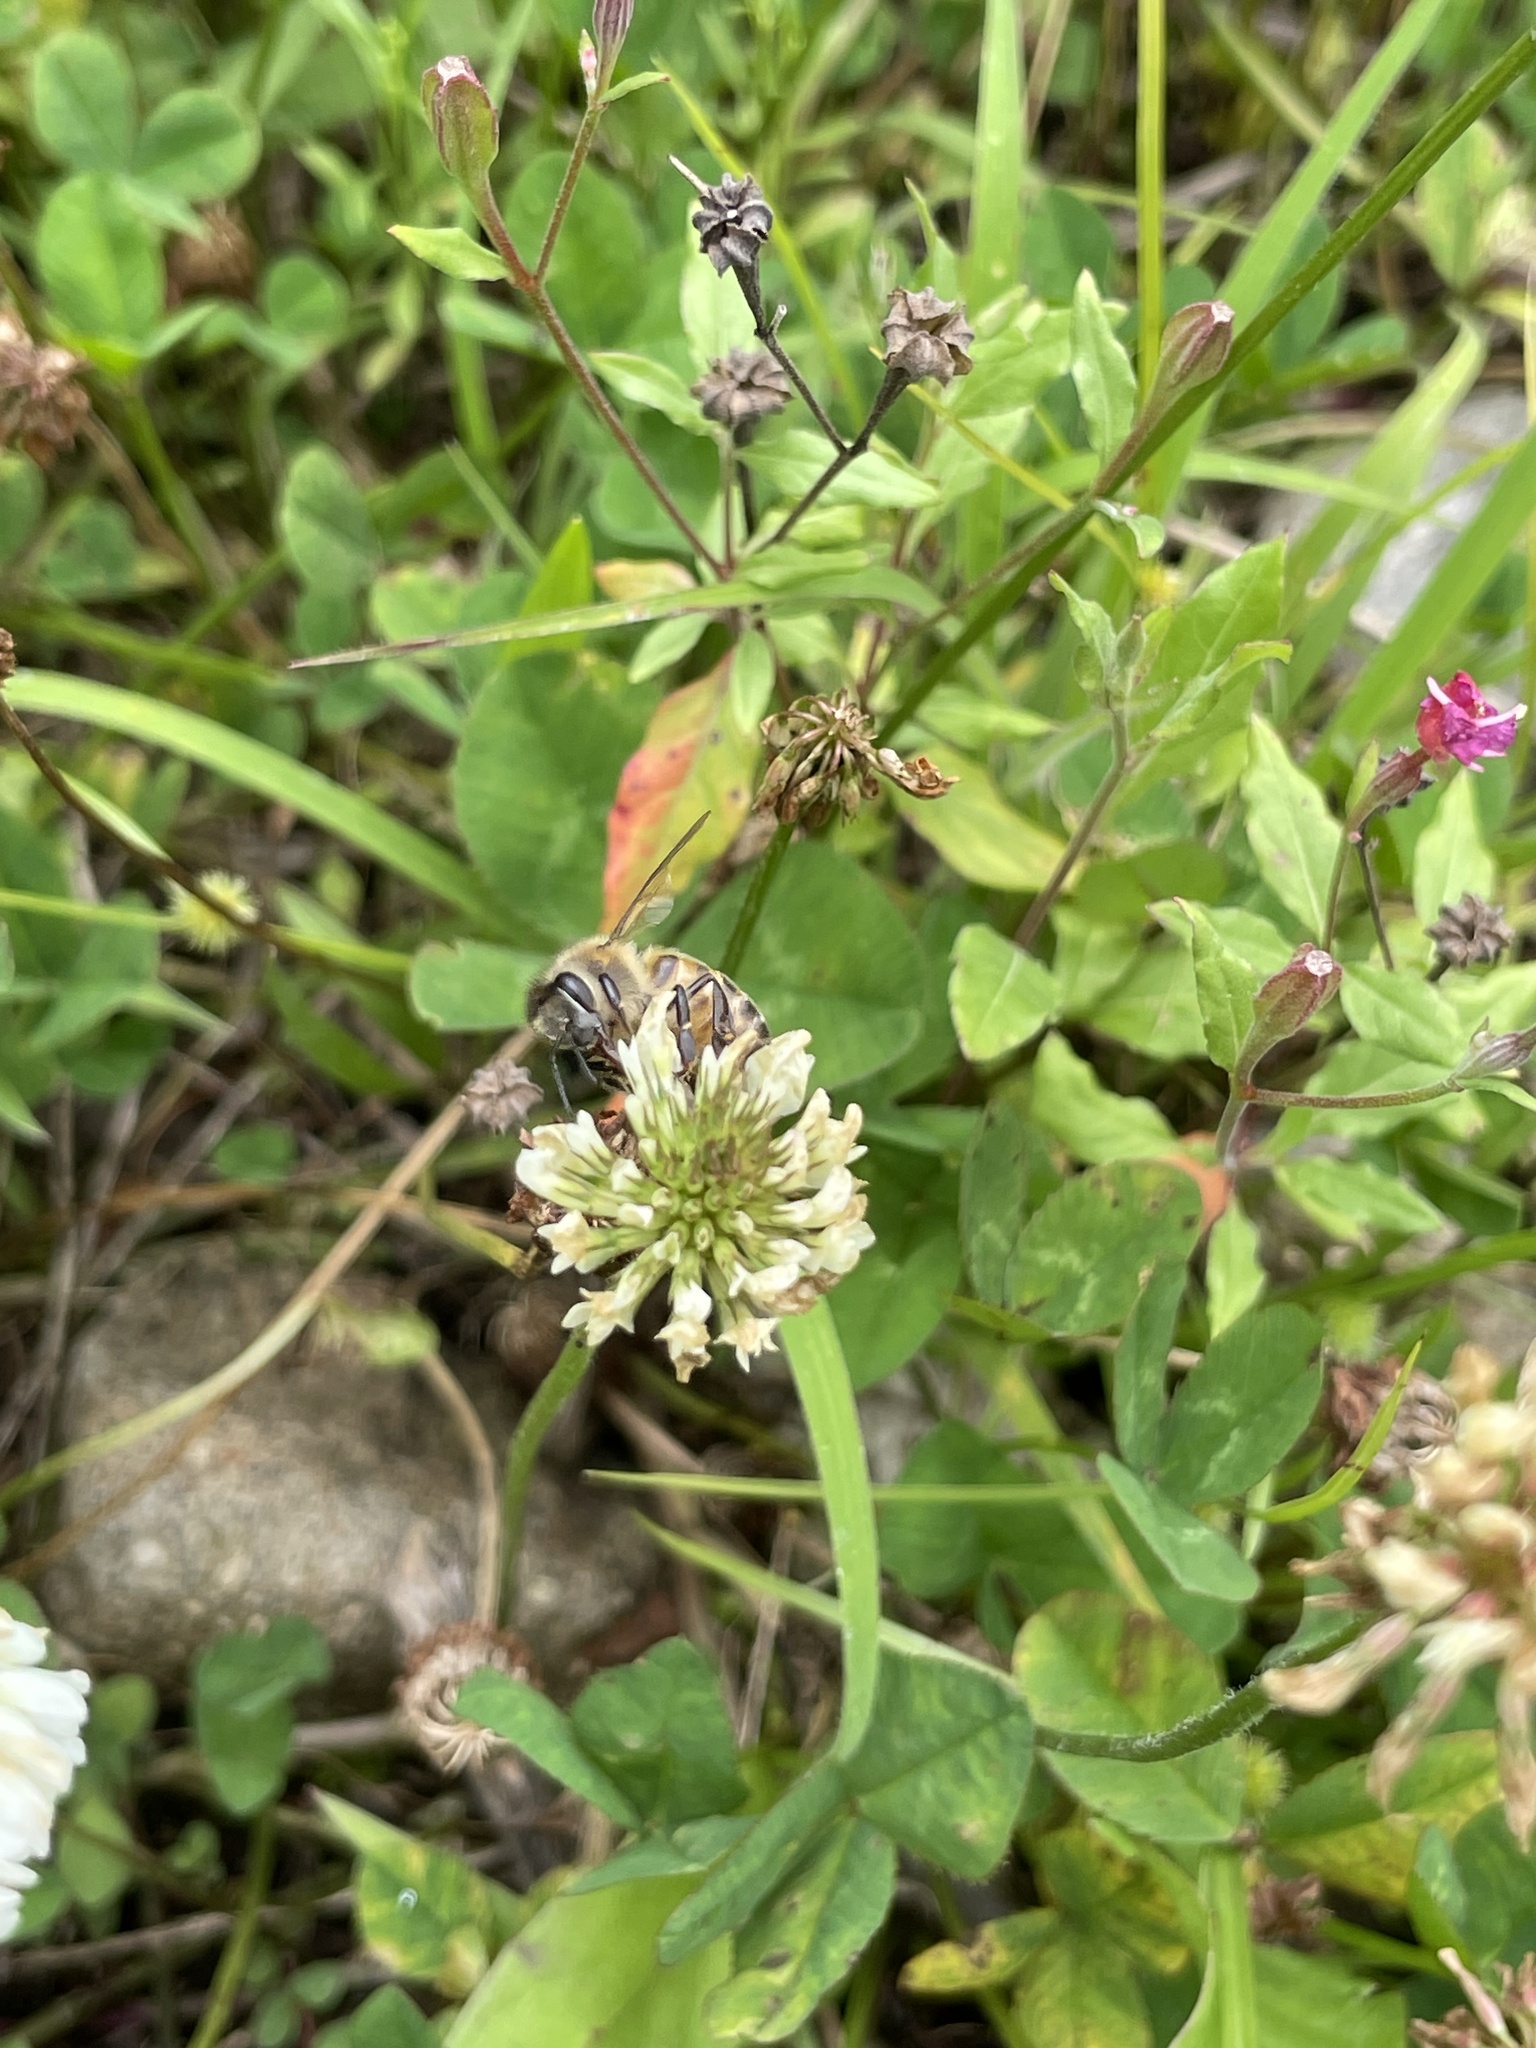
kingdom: Animalia
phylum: Arthropoda
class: Insecta
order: Hymenoptera
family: Apidae
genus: Apis
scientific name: Apis mellifera
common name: Honey bee
